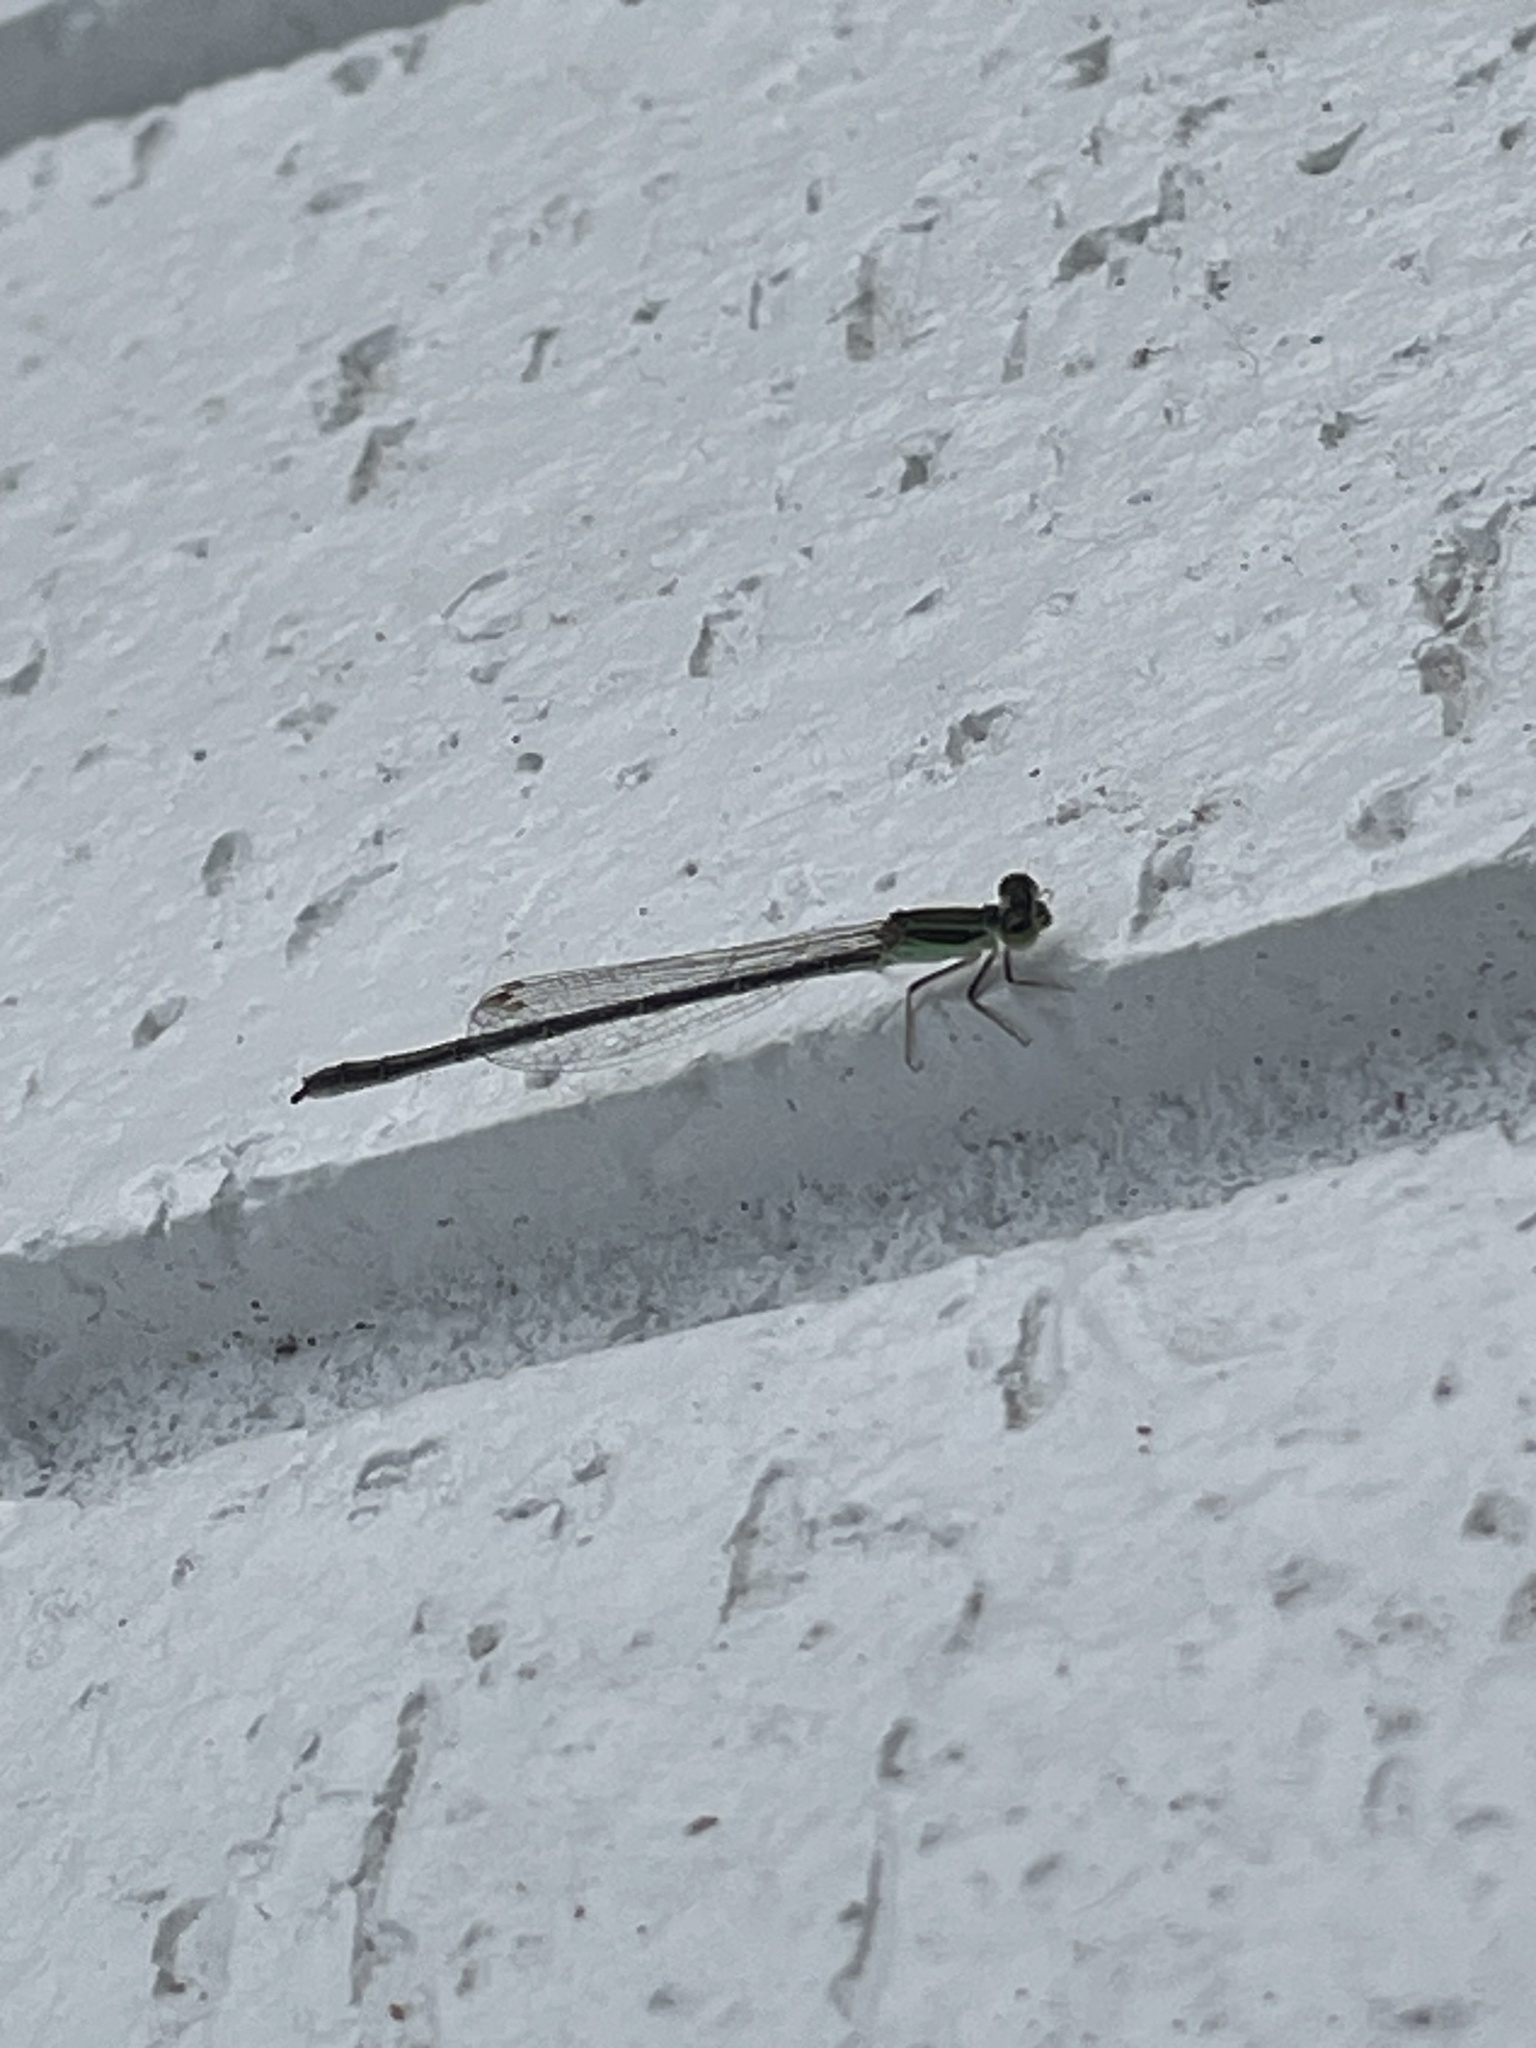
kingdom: Animalia
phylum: Arthropoda
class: Insecta
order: Odonata
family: Coenagrionidae
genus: Ischnura
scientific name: Ischnura aurora
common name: Gossamer damselfly
